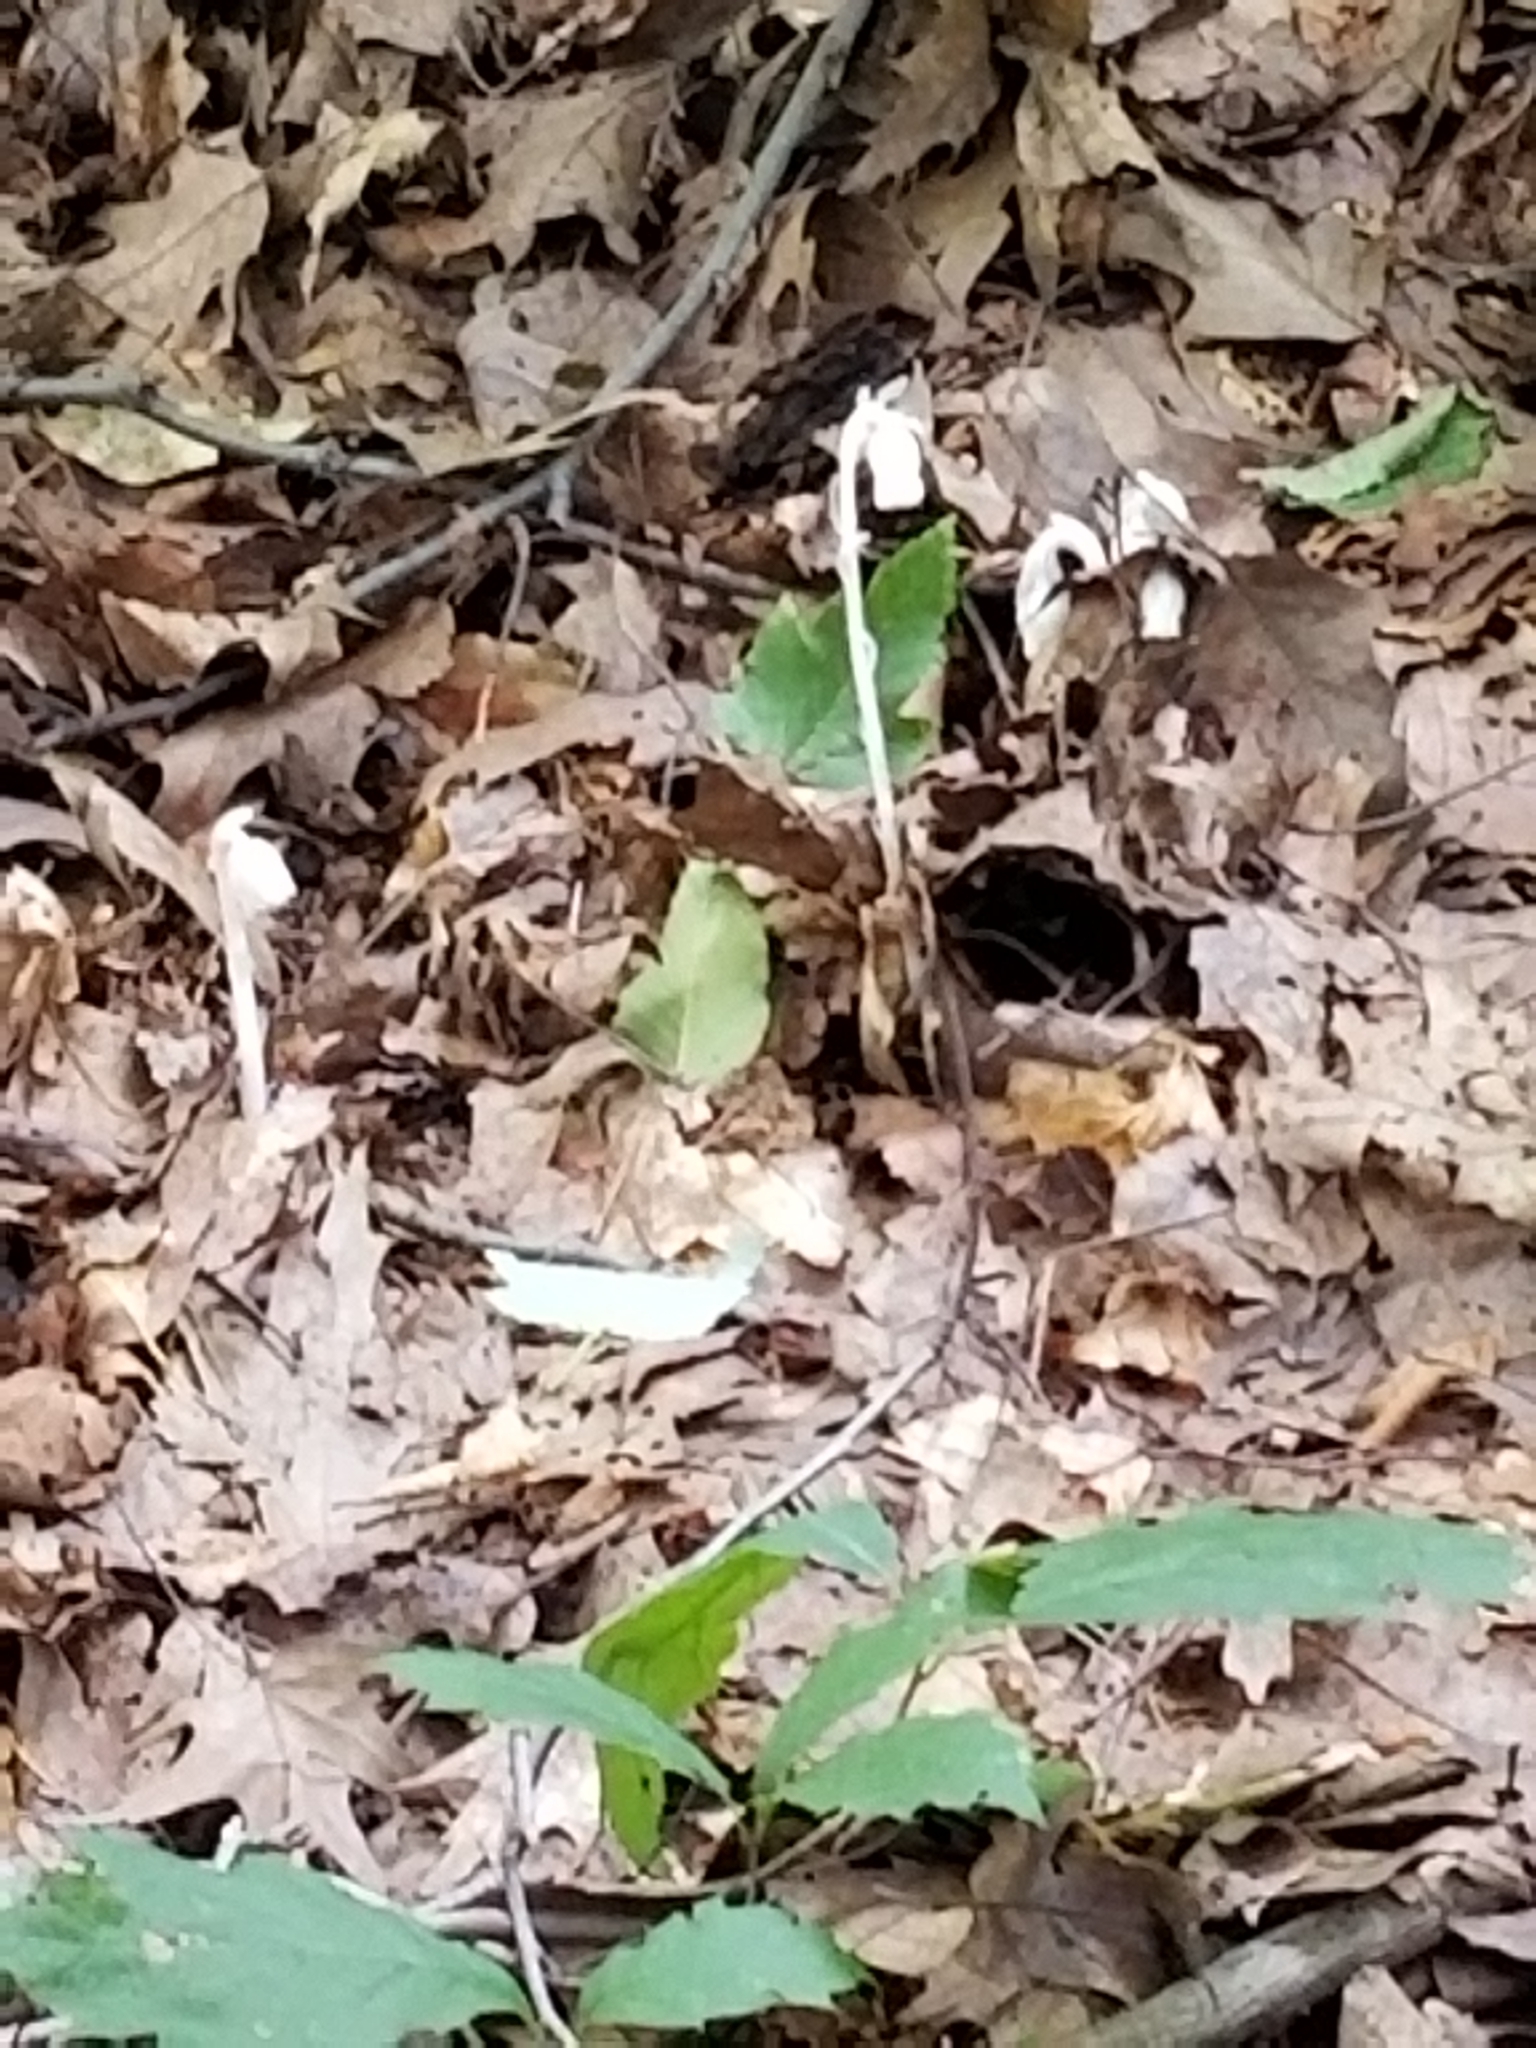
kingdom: Plantae
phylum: Tracheophyta
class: Magnoliopsida
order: Ericales
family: Ericaceae
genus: Monotropa
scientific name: Monotropa uniflora
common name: Convulsion root
